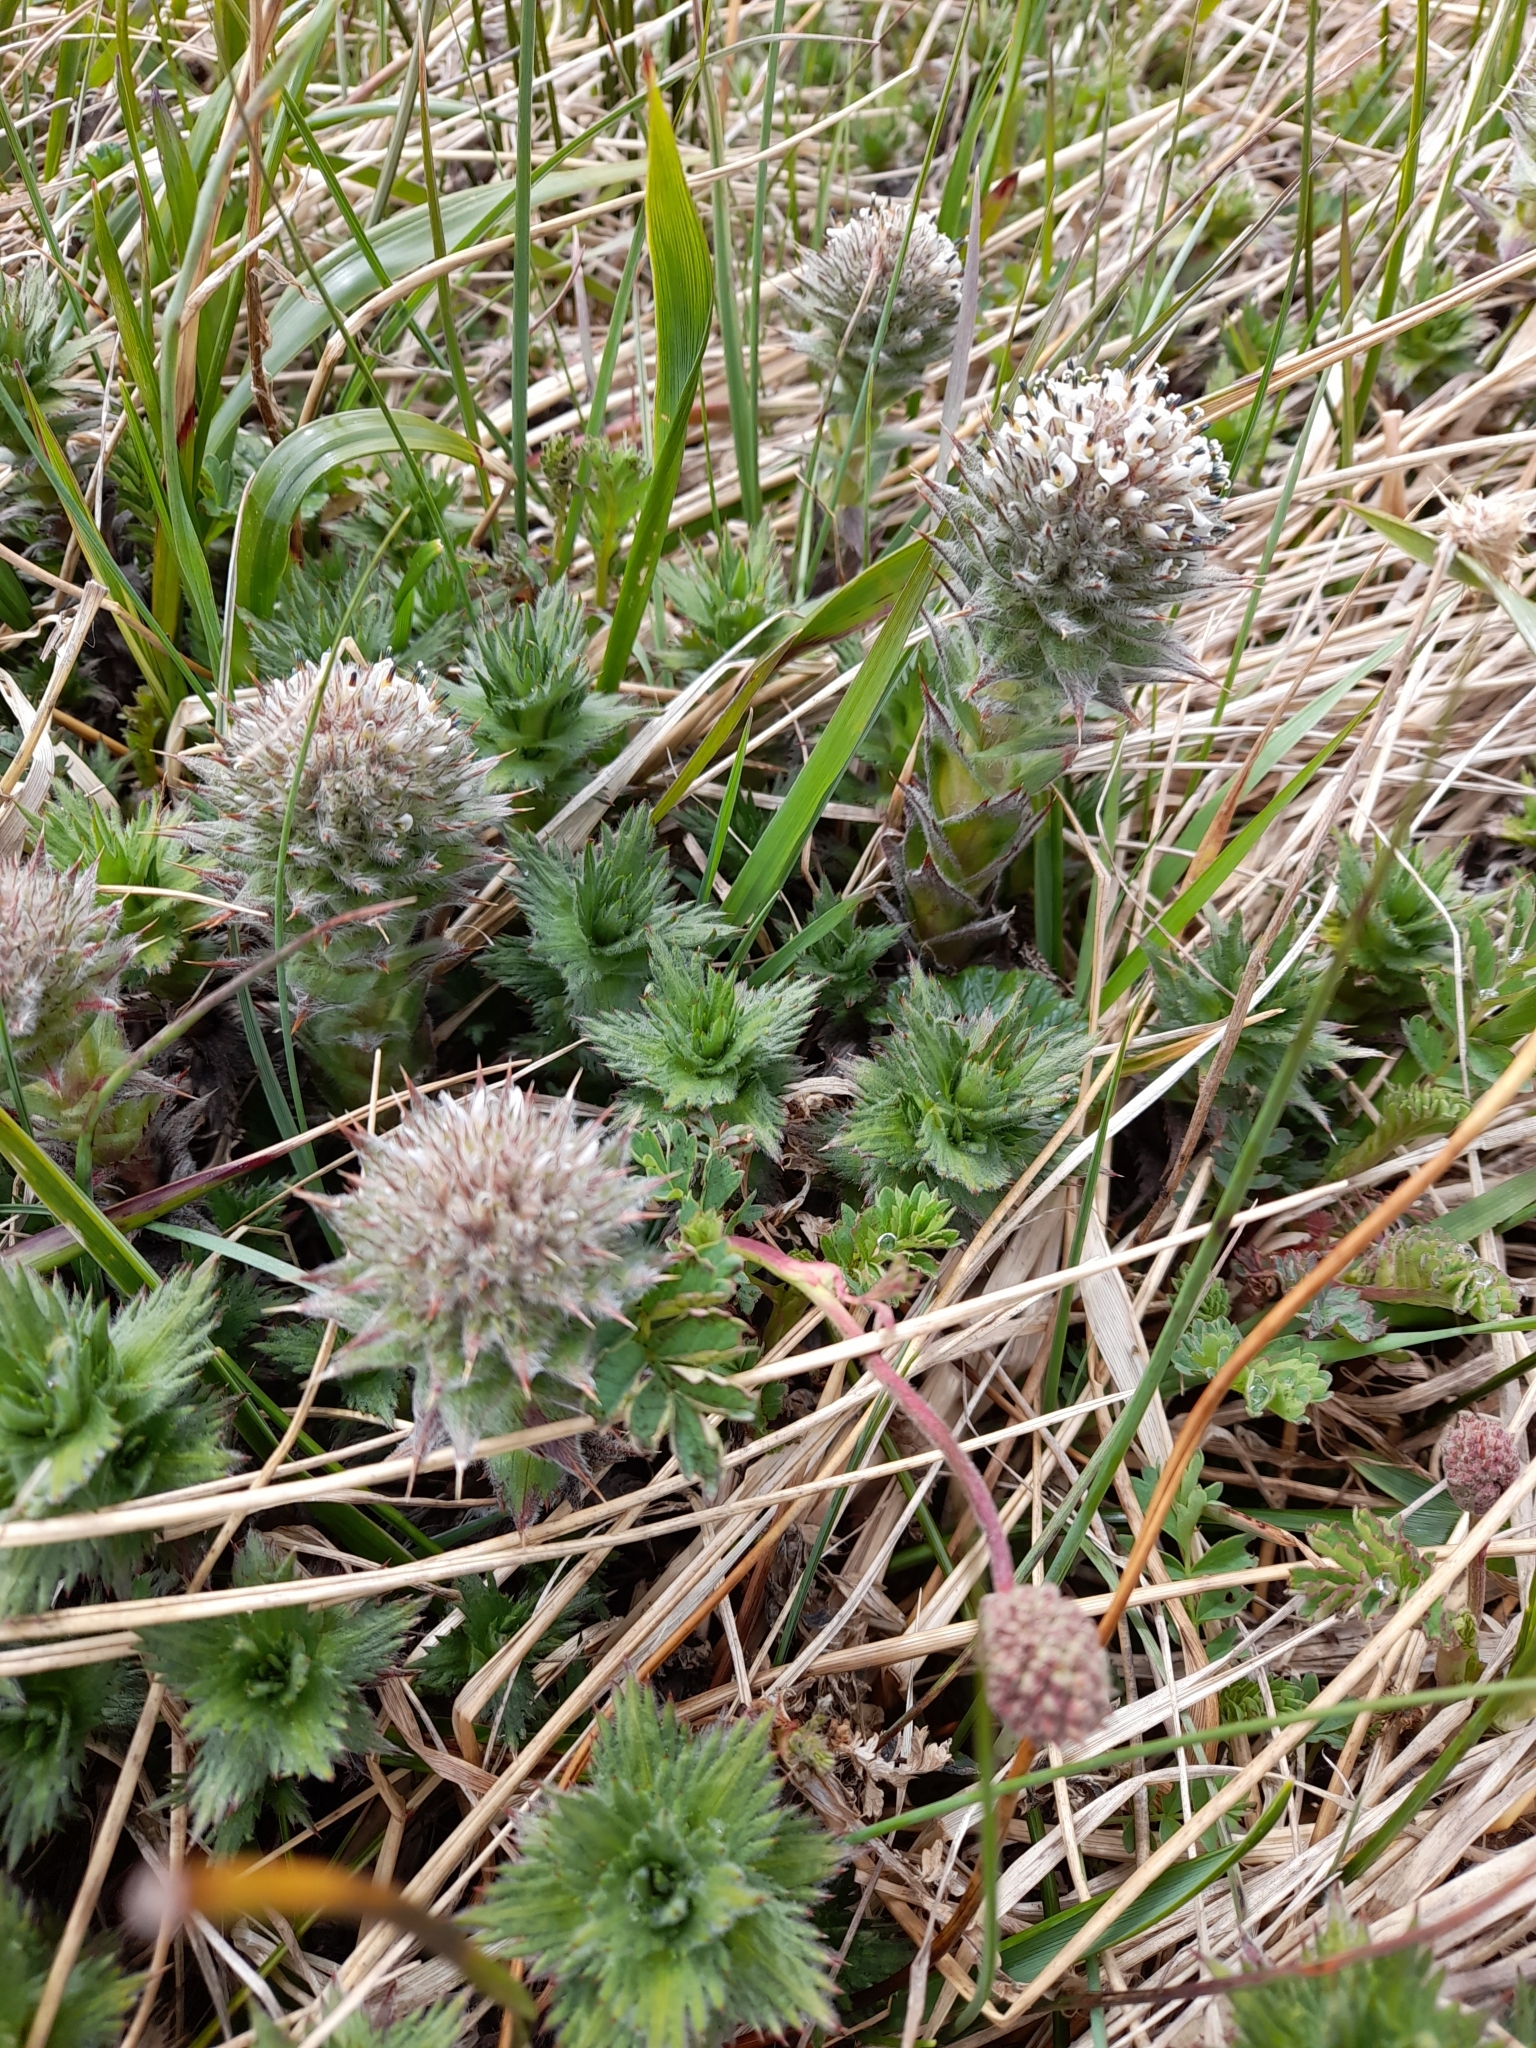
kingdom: Plantae
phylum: Tracheophyta
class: Magnoliopsida
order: Asterales
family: Asteraceae
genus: Nassauvia
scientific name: Nassauvia magellanica
